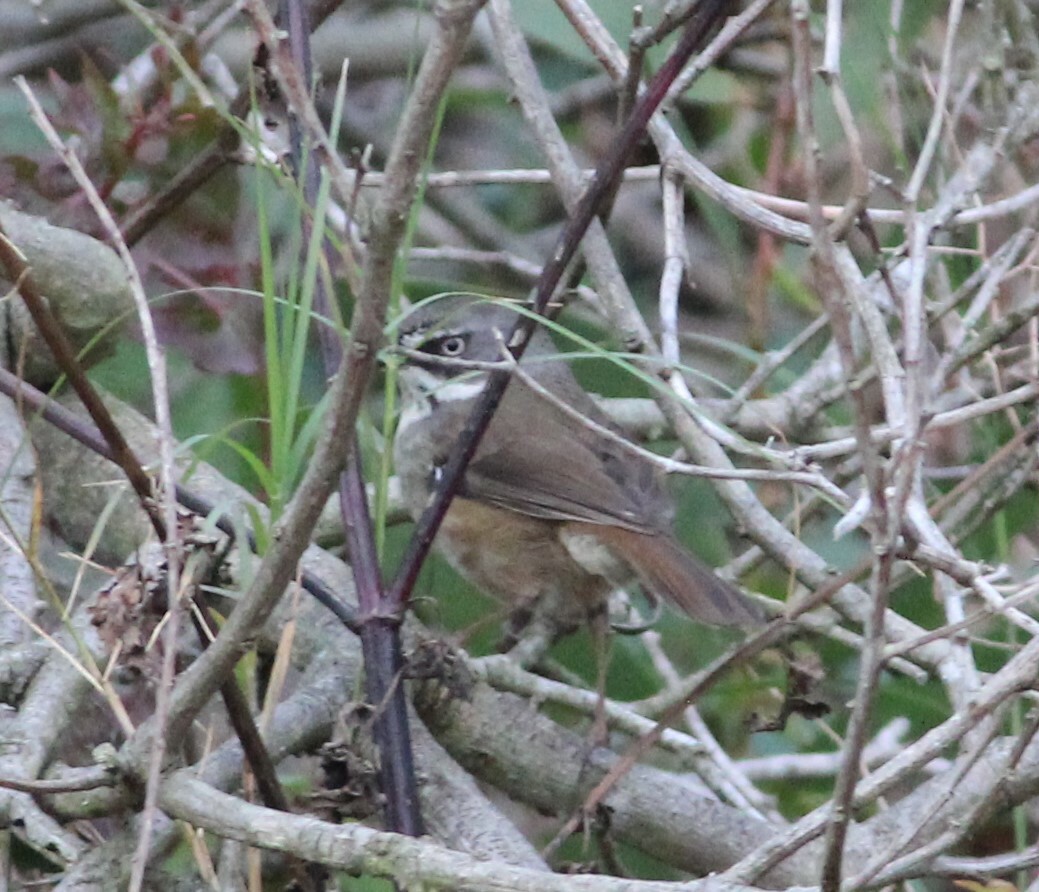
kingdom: Animalia
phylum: Chordata
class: Aves
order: Passeriformes
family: Acanthizidae
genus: Sericornis
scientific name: Sericornis frontalis
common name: White-browed scrubwren
